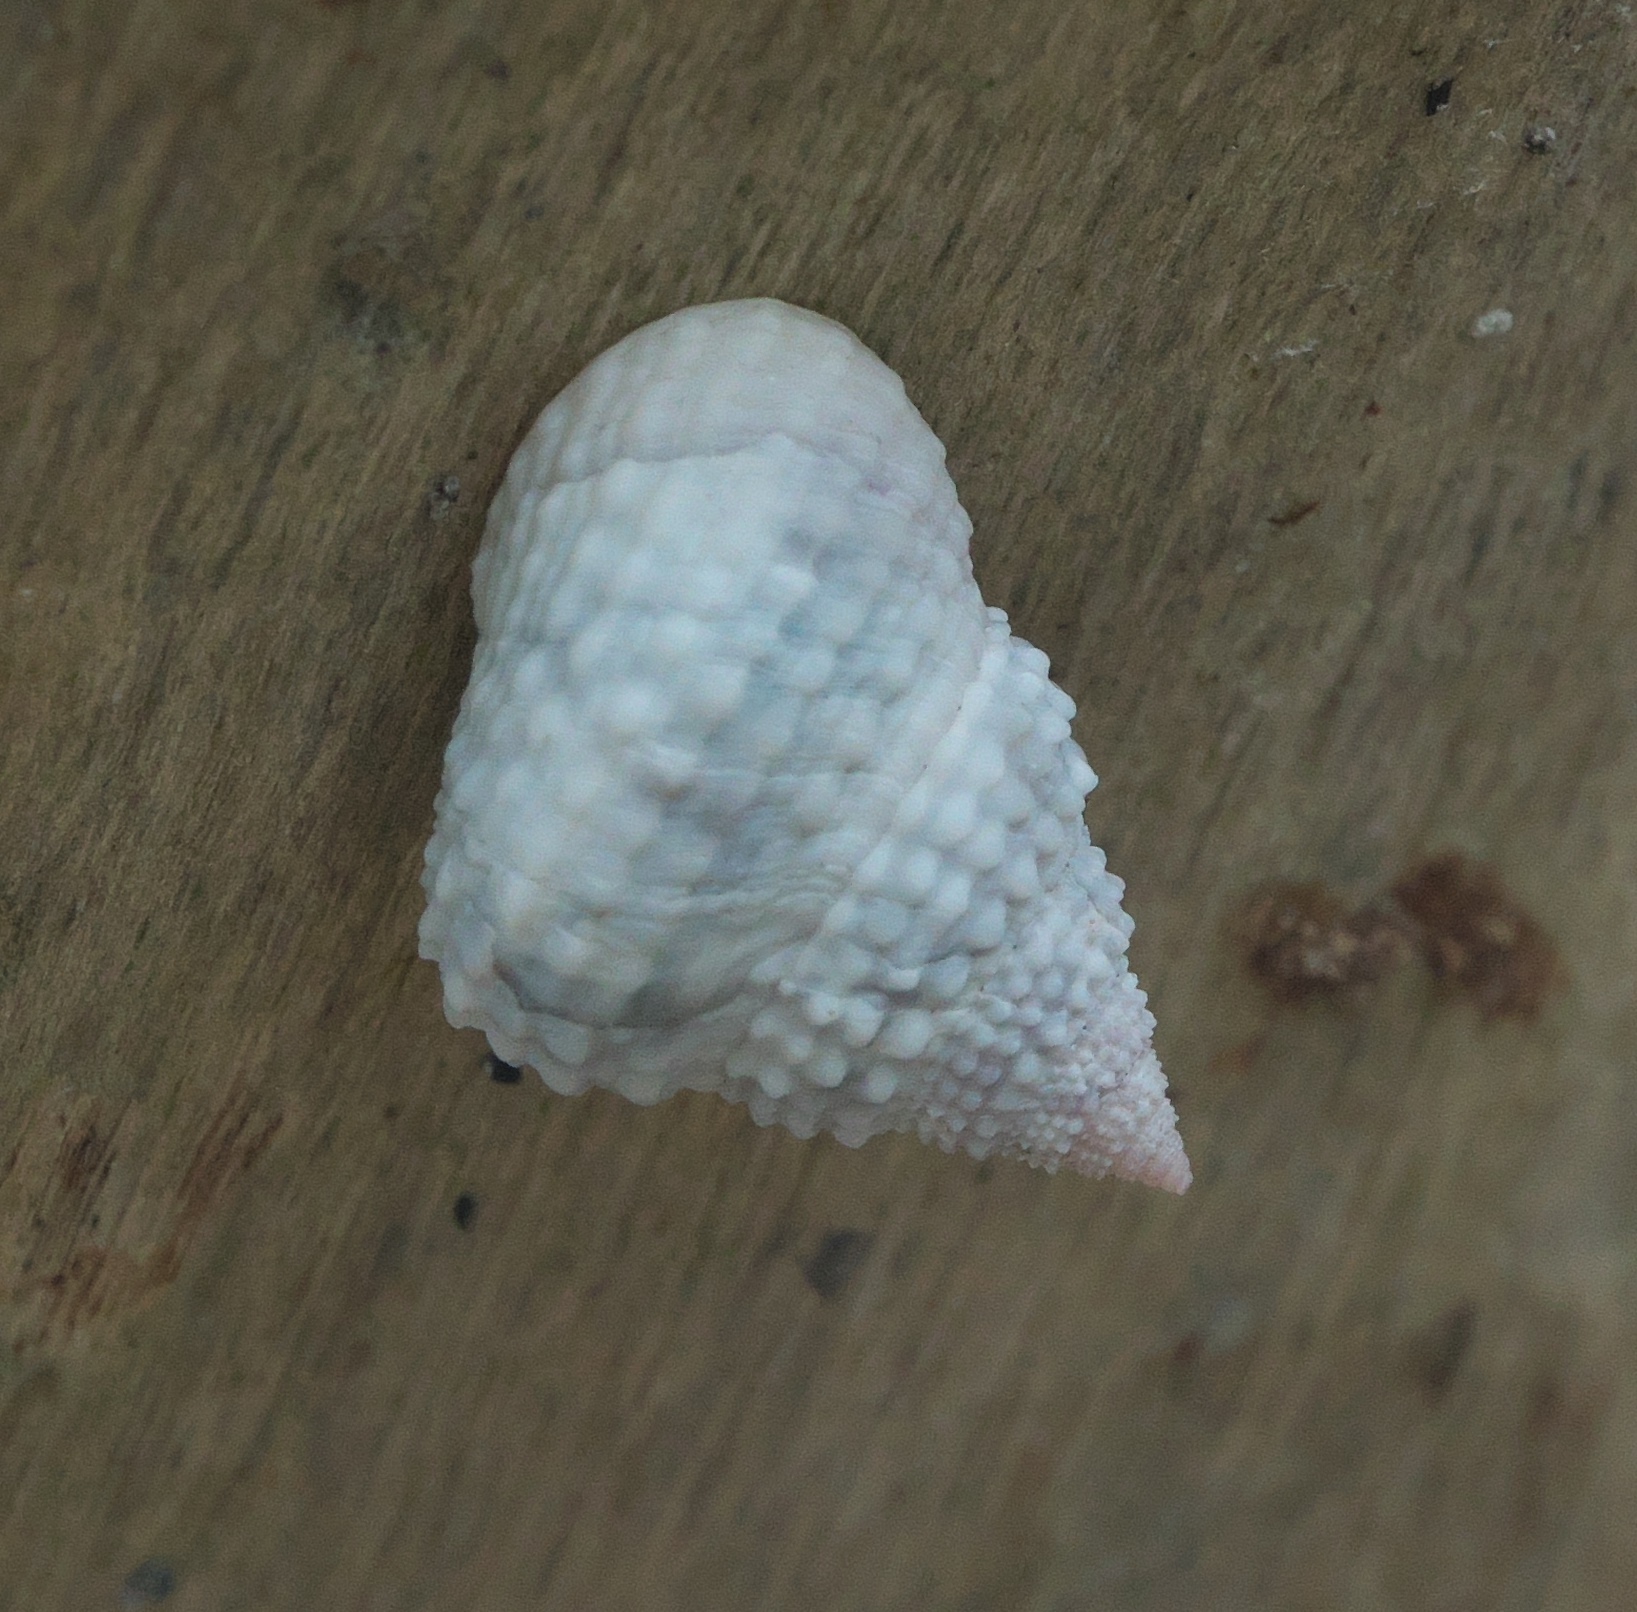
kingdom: Animalia
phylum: Mollusca
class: Gastropoda
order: Littorinimorpha
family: Littorinidae
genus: Cenchritis
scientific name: Cenchritis muricatus
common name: Beaded periwinkle
